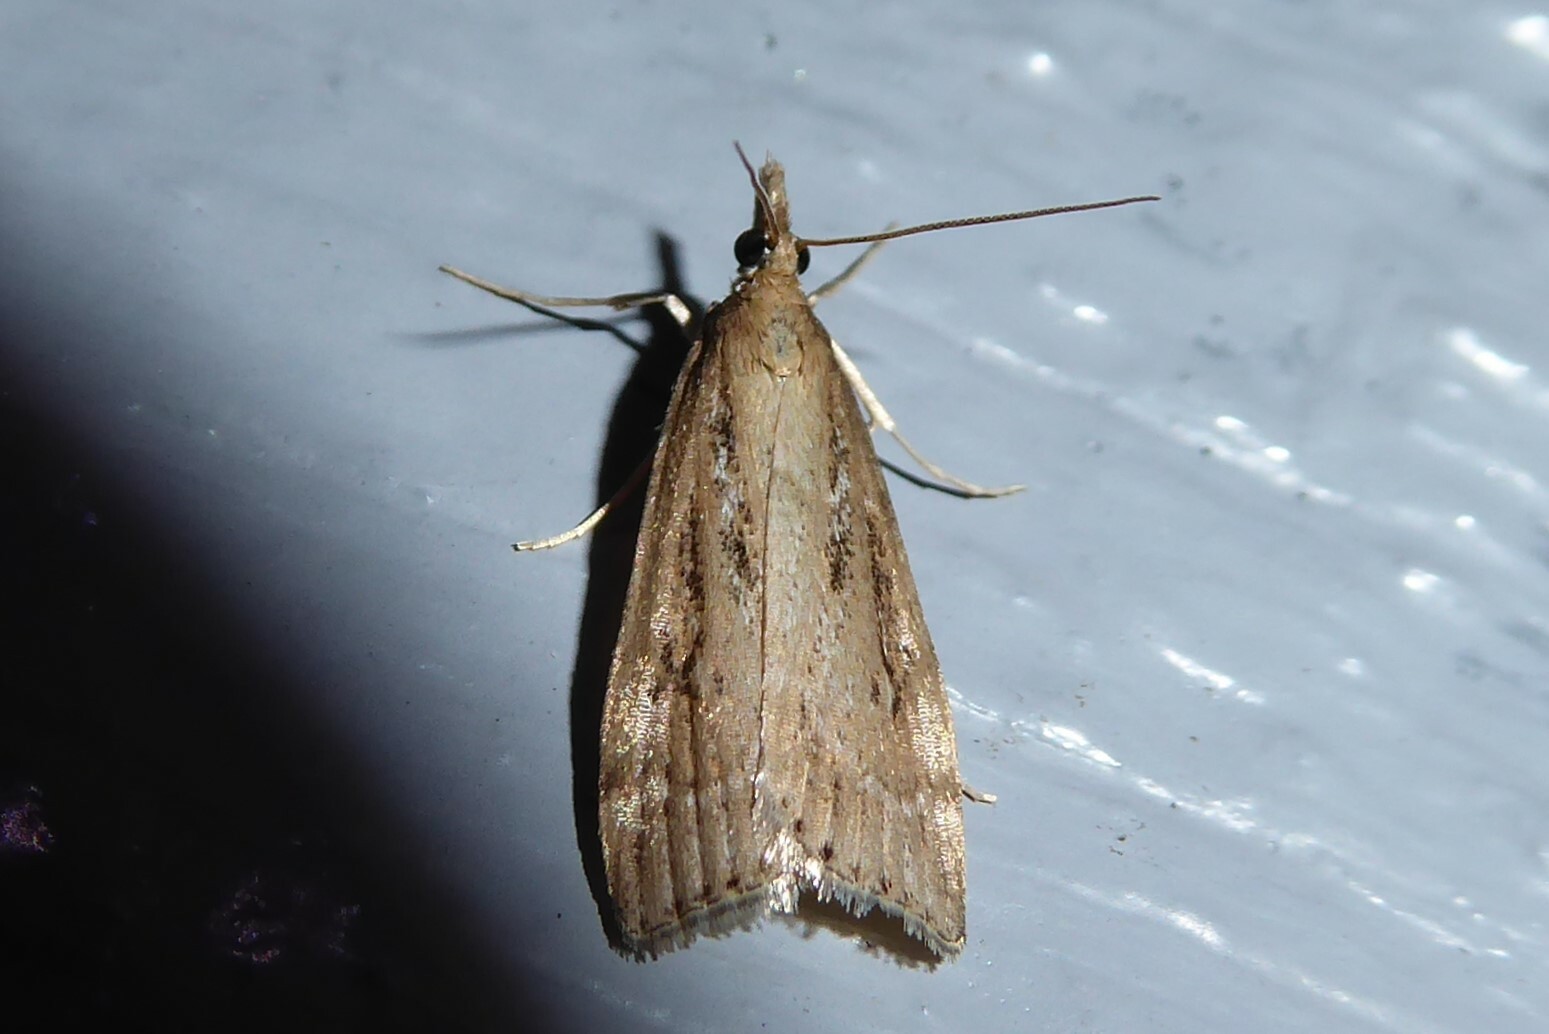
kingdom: Animalia
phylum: Arthropoda
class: Insecta
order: Lepidoptera
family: Crambidae
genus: Eudonia
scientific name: Eudonia octophora
